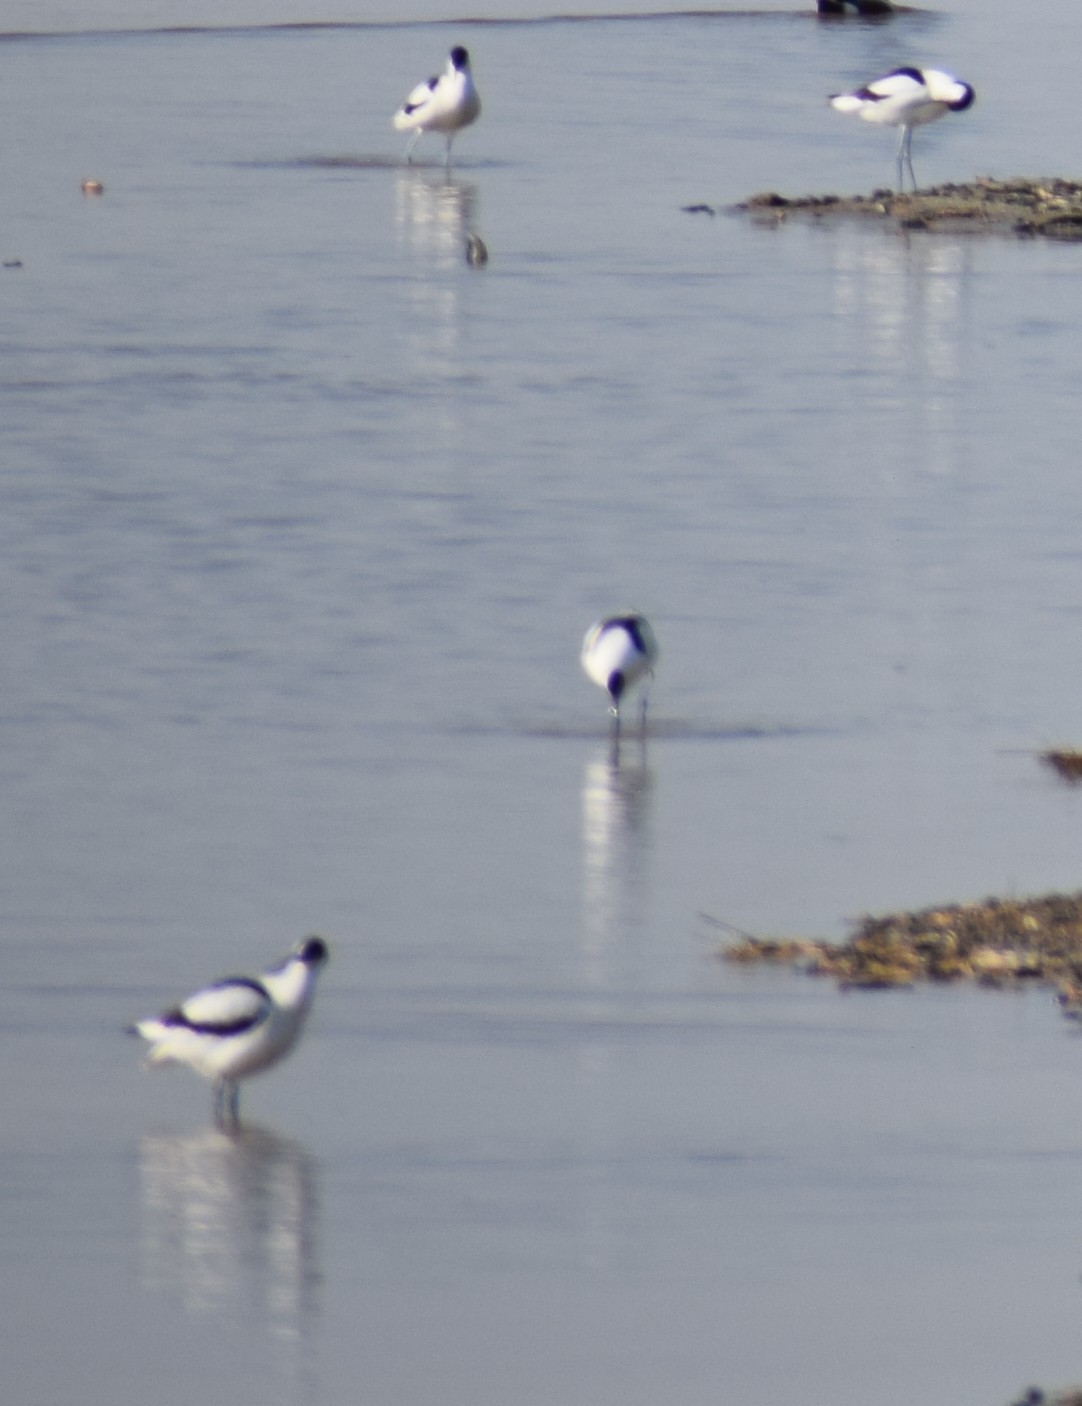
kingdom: Animalia
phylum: Chordata
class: Aves
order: Charadriiformes
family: Recurvirostridae
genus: Recurvirostra
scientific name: Recurvirostra avosetta
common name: Pied avocet
